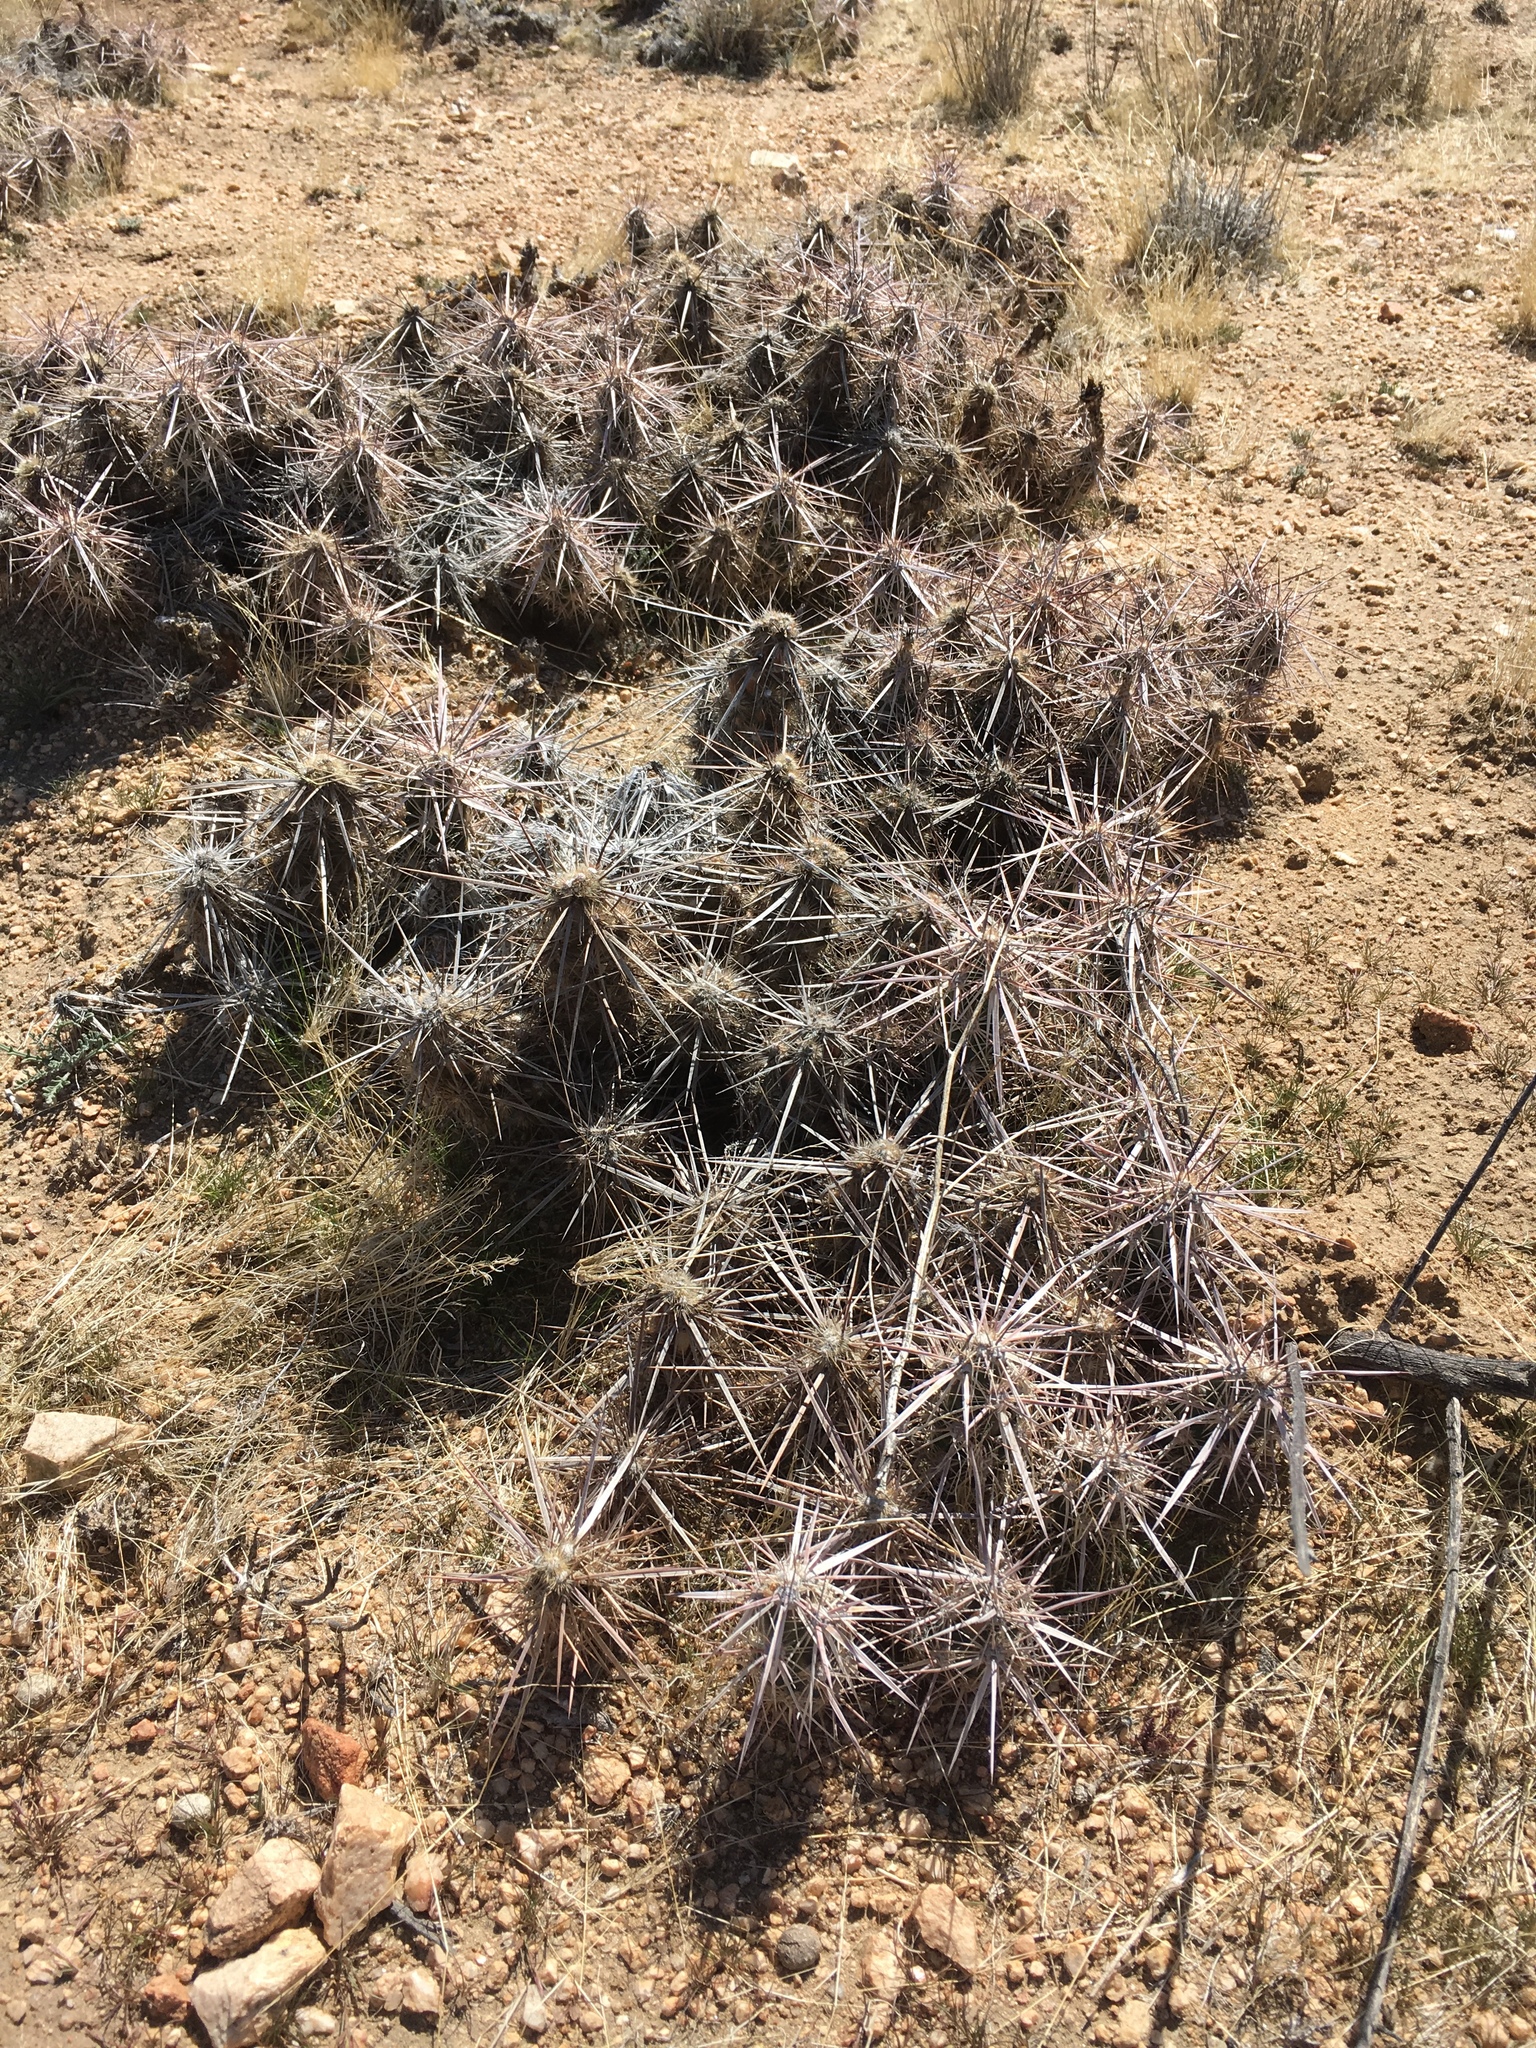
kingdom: Plantae
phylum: Tracheophyta
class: Magnoliopsida
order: Caryophyllales
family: Cactaceae
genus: Grusonia
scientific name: Grusonia parishiorum
